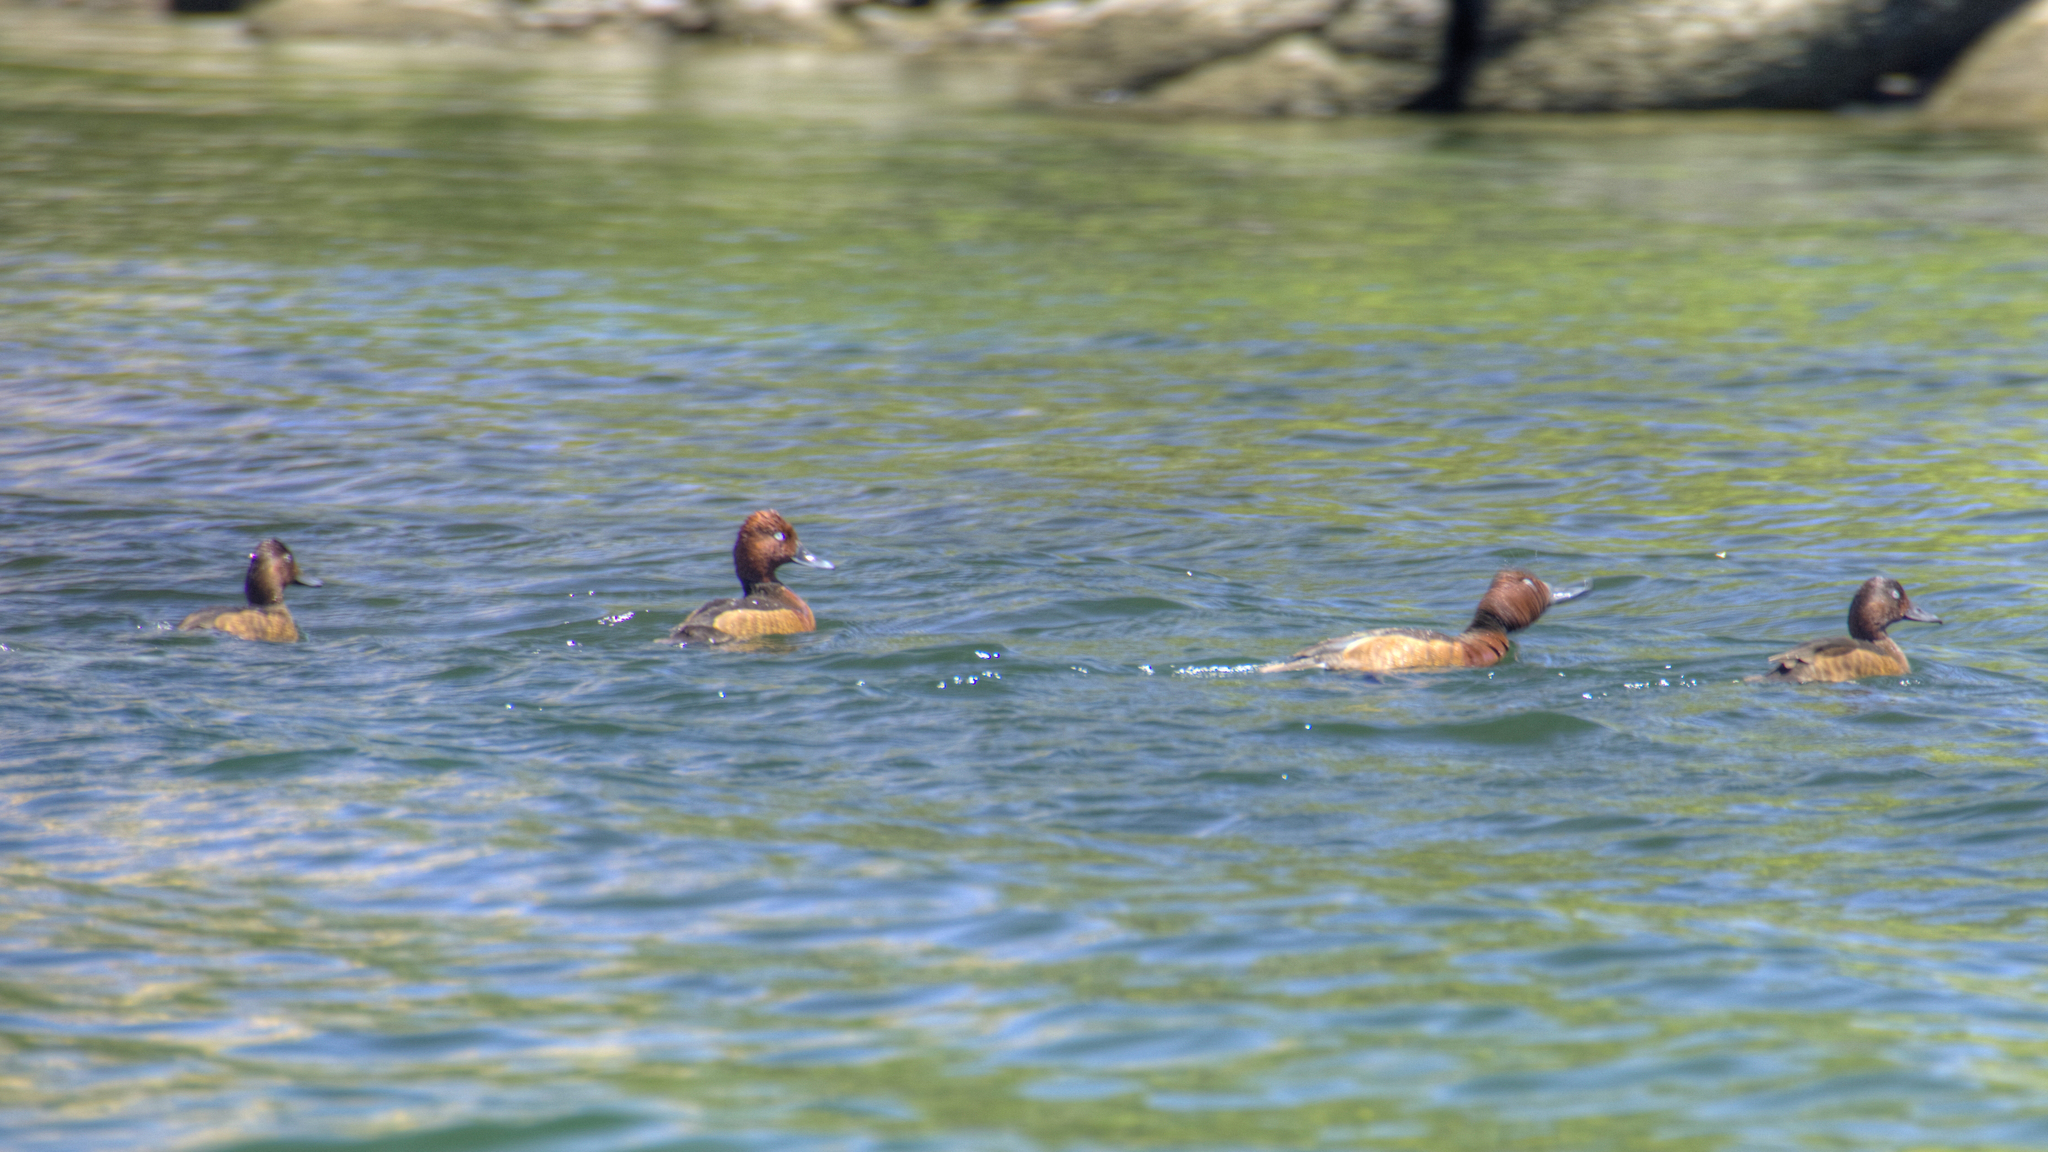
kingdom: Animalia
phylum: Chordata
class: Aves
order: Anseriformes
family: Anatidae
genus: Aythya
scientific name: Aythya nyroca
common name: Ferruginous duck
